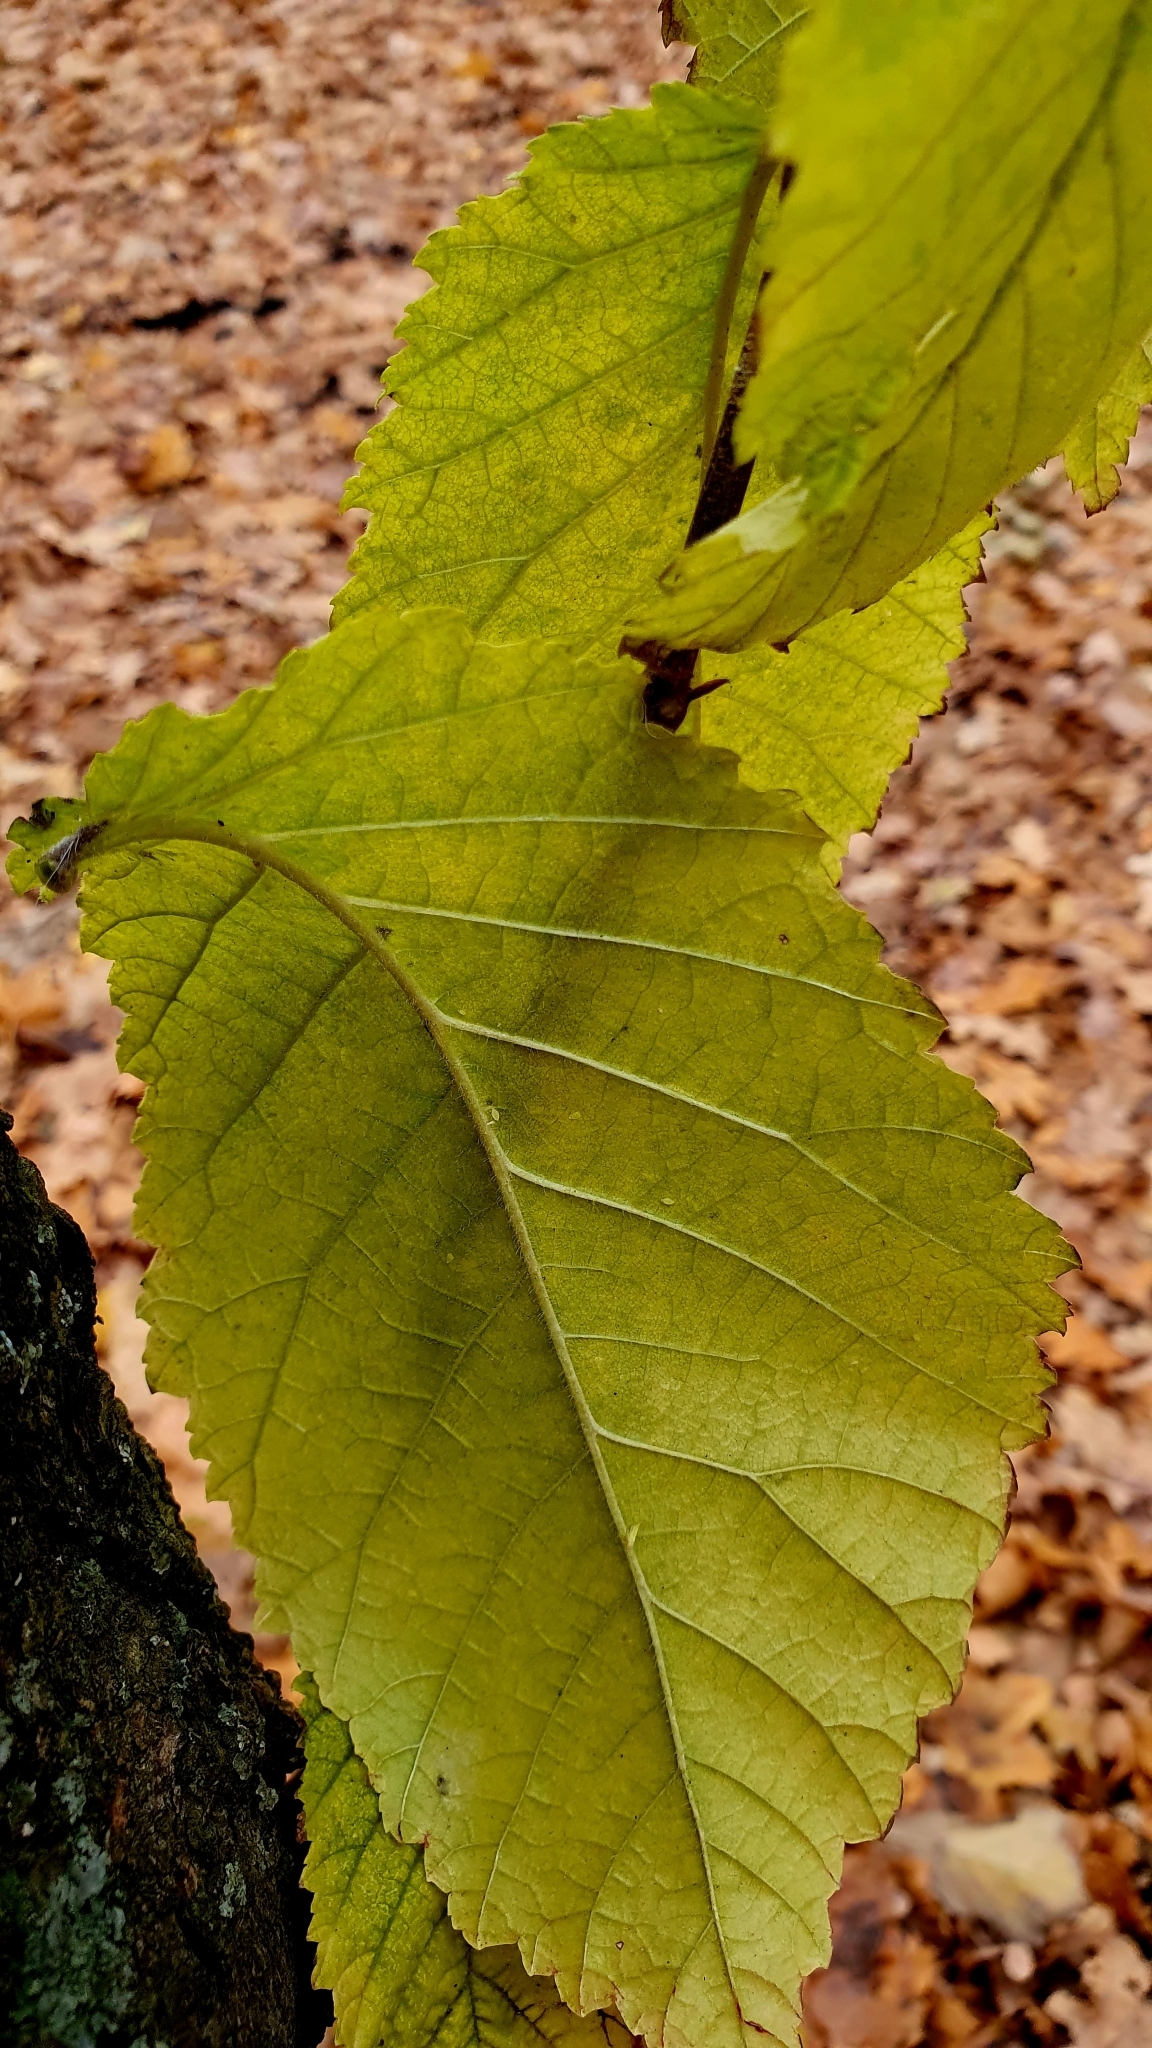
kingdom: Plantae
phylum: Tracheophyta
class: Magnoliopsida
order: Rosales
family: Ulmaceae
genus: Ulmus
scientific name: Ulmus glabra
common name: Wych elm
